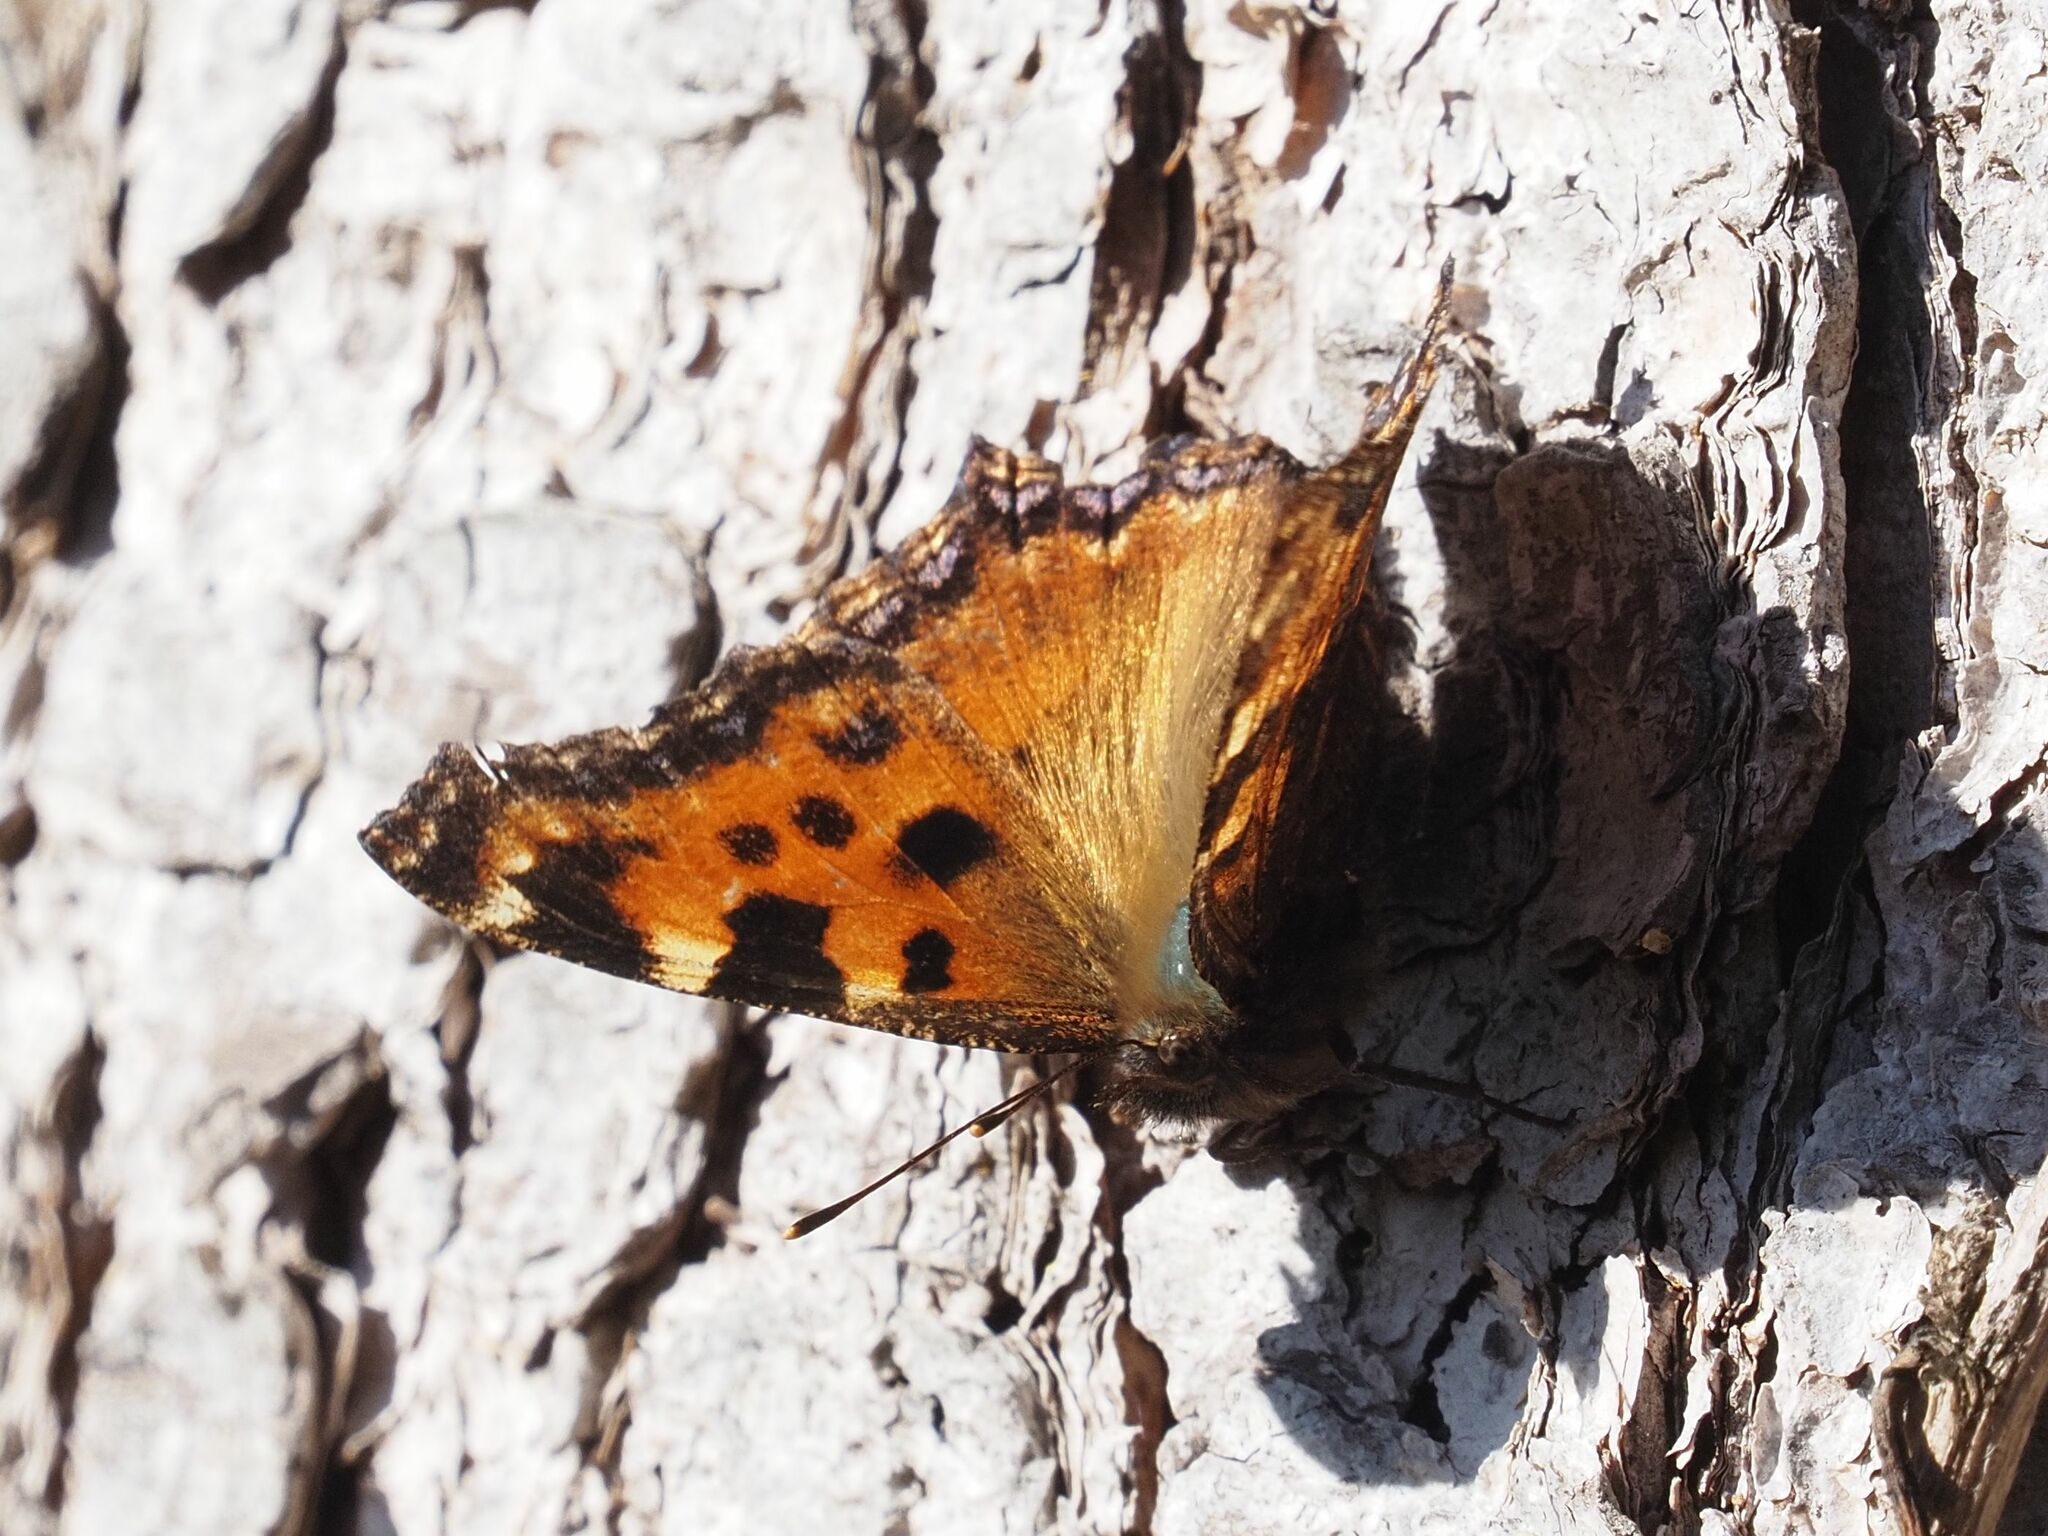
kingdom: Animalia
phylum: Arthropoda
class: Insecta
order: Lepidoptera
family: Nymphalidae
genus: Nymphalis
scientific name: Nymphalis polychloros
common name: Large tortoiseshell
